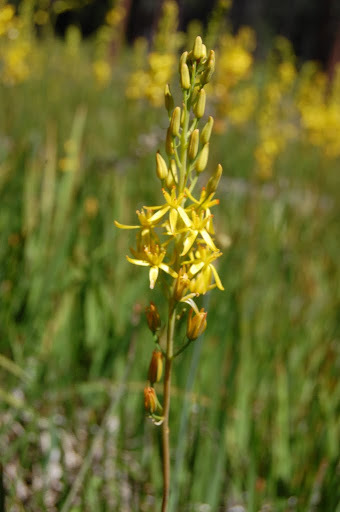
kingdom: Plantae
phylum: Tracheophyta
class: Liliopsida
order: Dioscoreales
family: Nartheciaceae
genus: Narthecium
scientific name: Narthecium californicum
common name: California bog-asphodel
